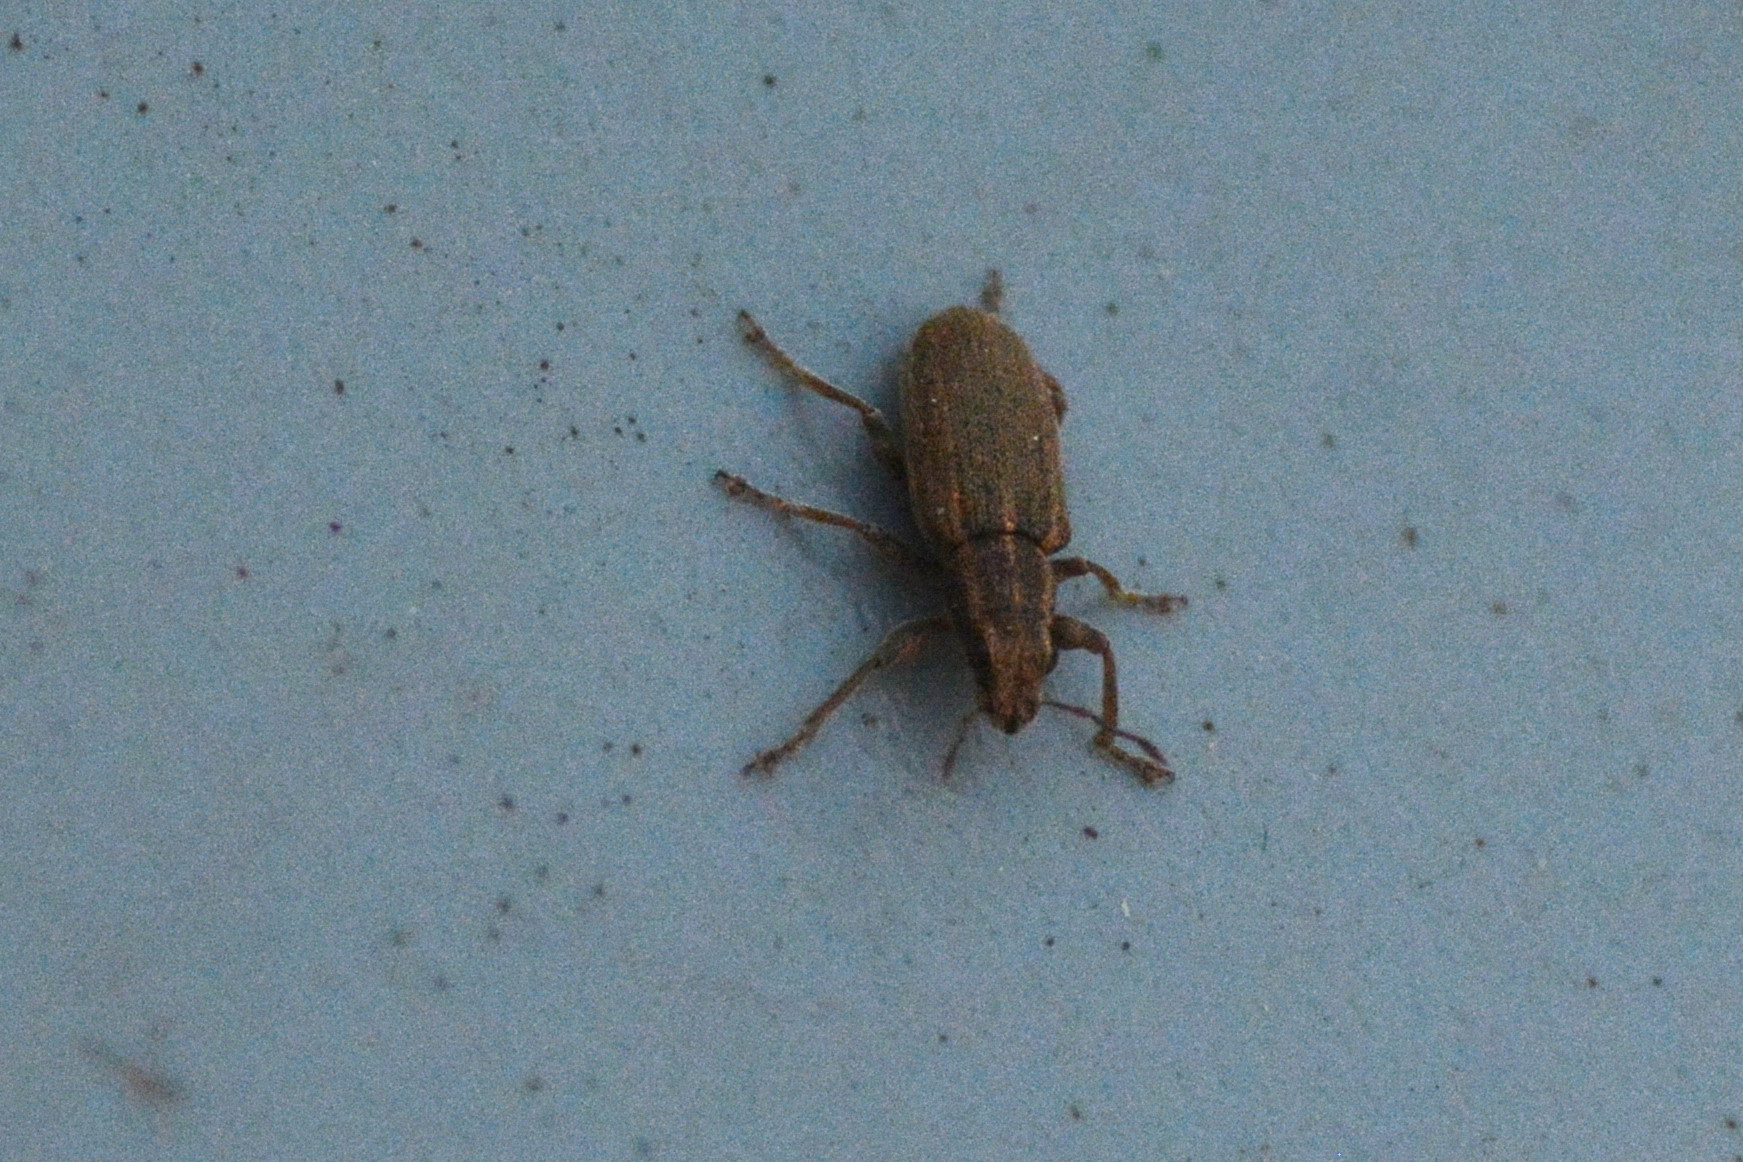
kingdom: Animalia
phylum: Arthropoda
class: Insecta
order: Coleoptera
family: Curculionidae
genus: Sitona
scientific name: Sitona lineatus
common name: Weevil
